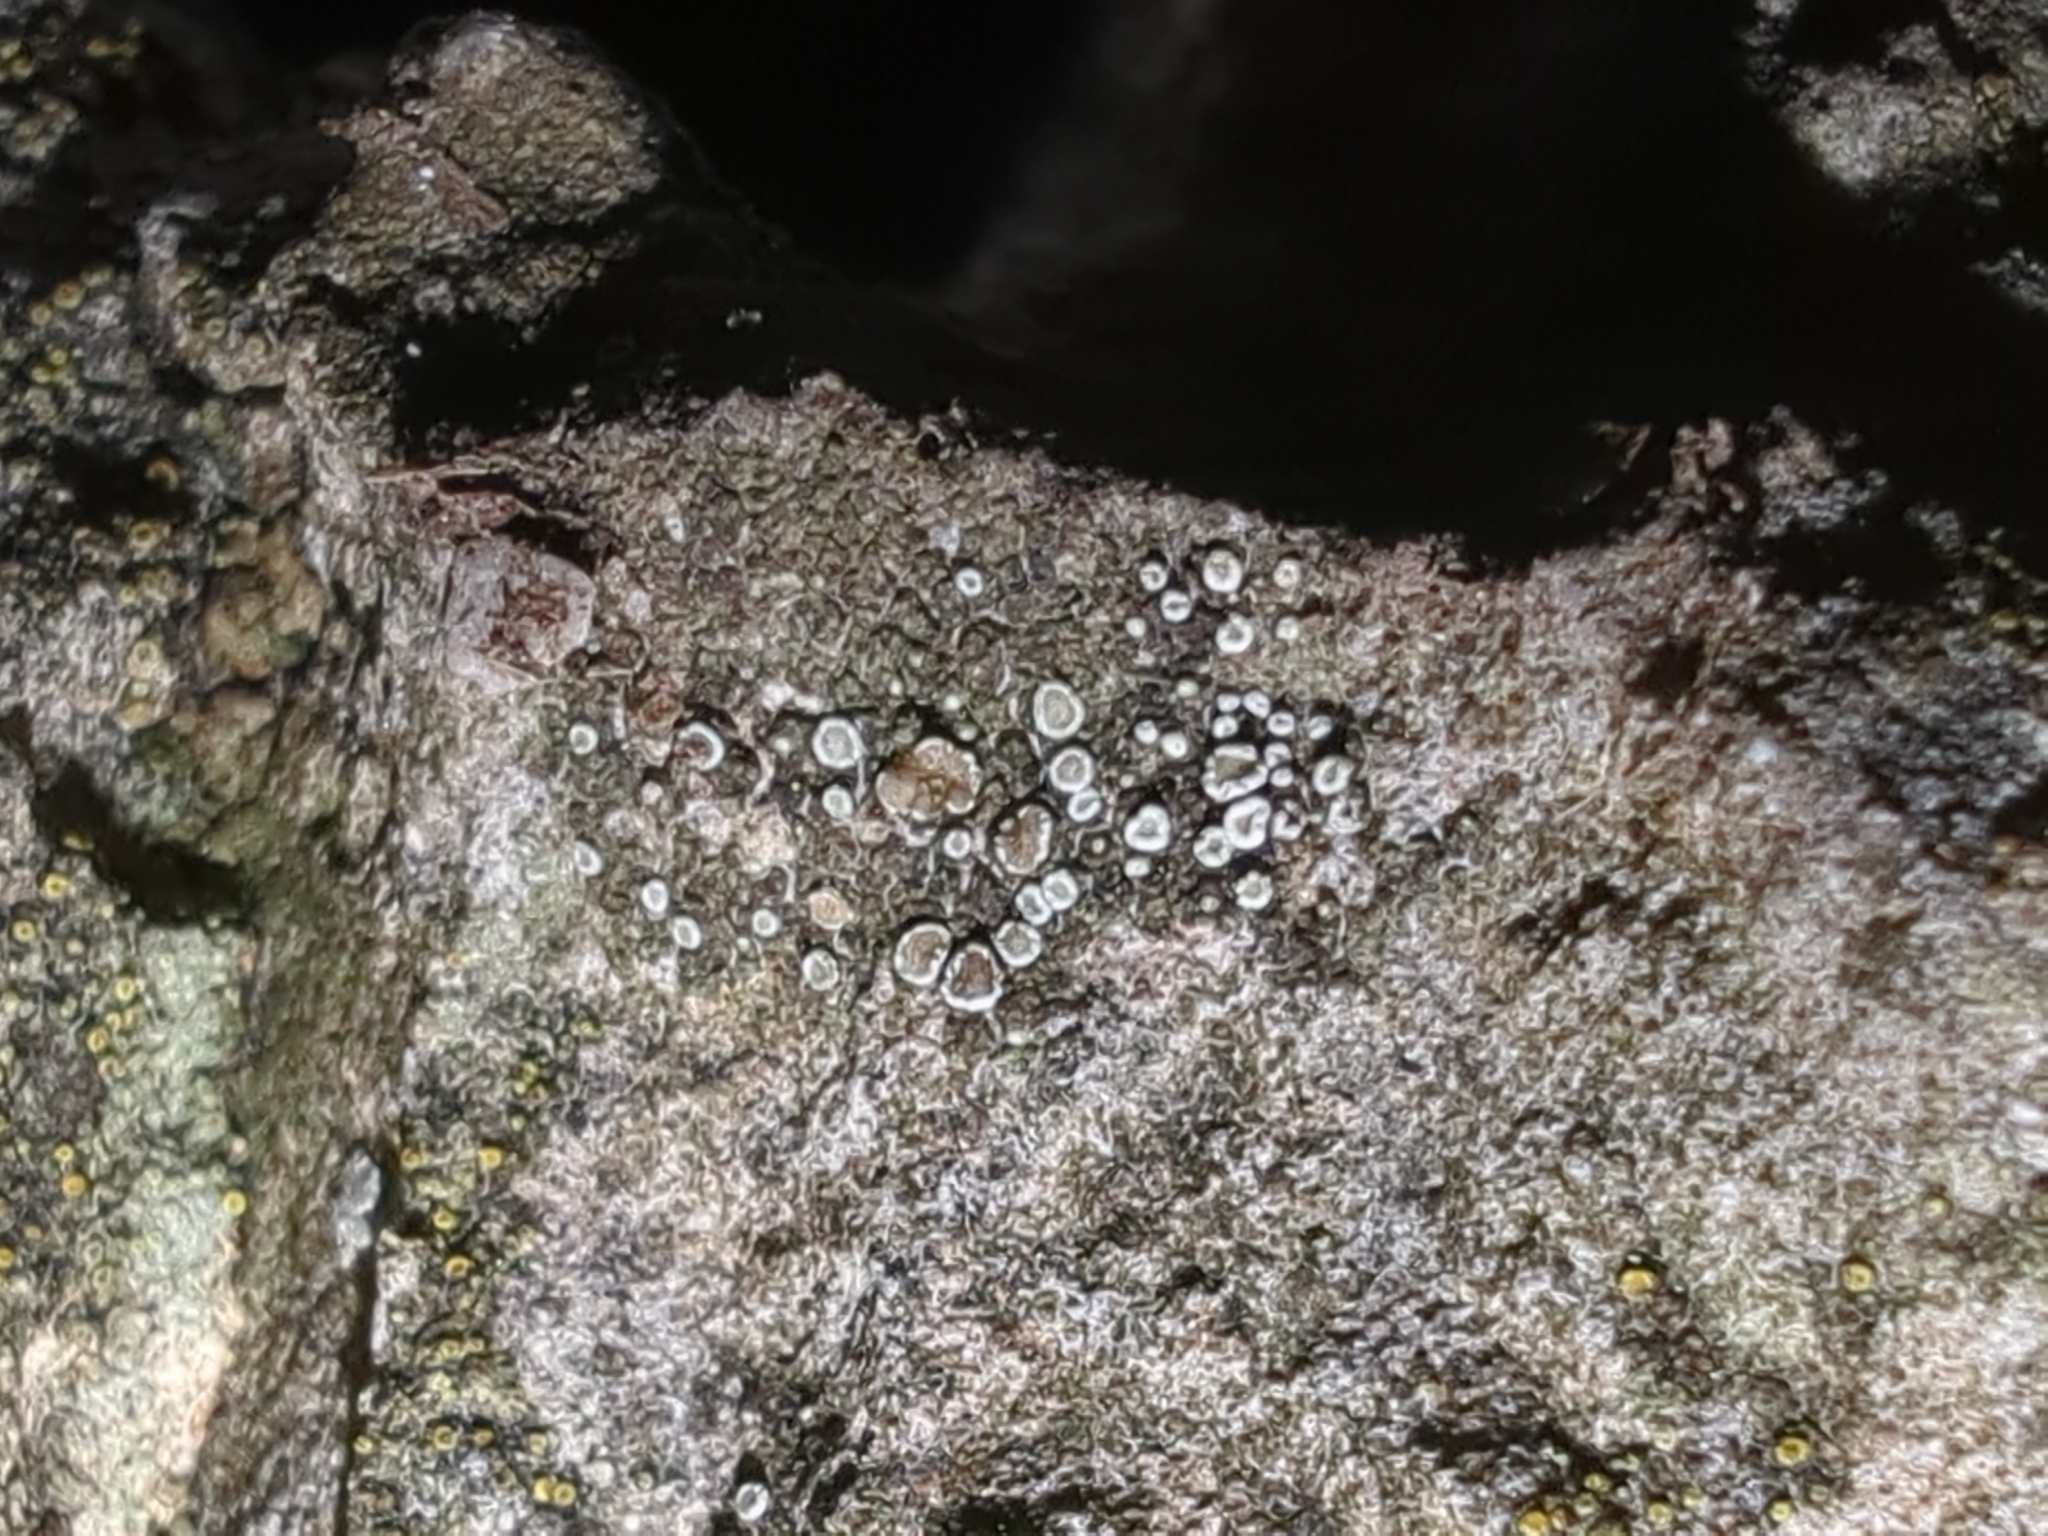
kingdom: Fungi
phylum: Ascomycota
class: Lecanoromycetes
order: Lecanorales
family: Lecanoraceae
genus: Polyozosia
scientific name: Polyozosia semipallida
